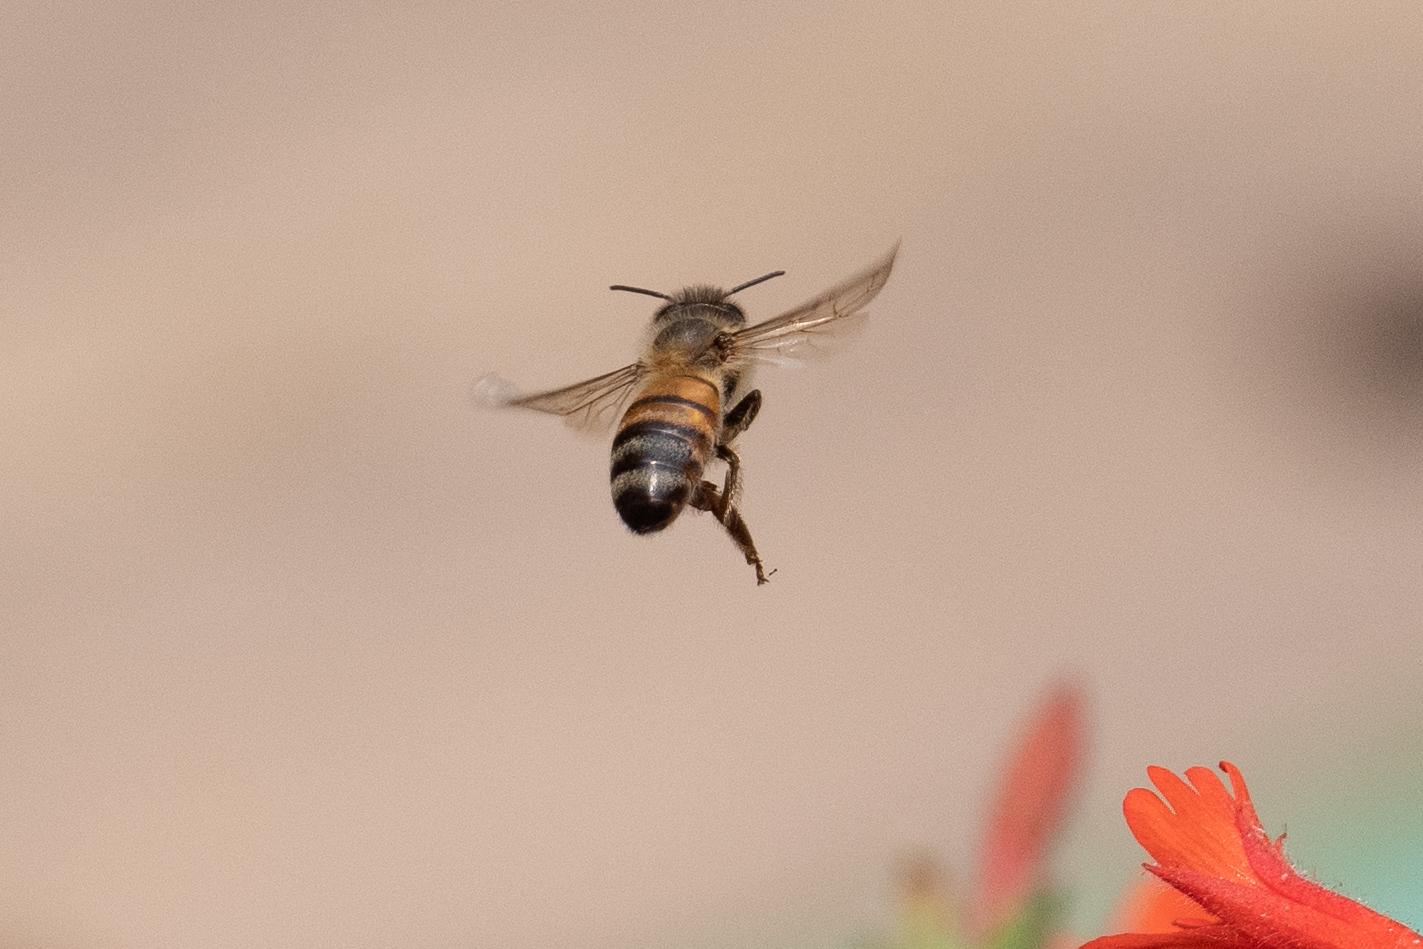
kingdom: Animalia
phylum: Arthropoda
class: Insecta
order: Hymenoptera
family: Apidae
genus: Apis
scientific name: Apis mellifera
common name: Honey bee
